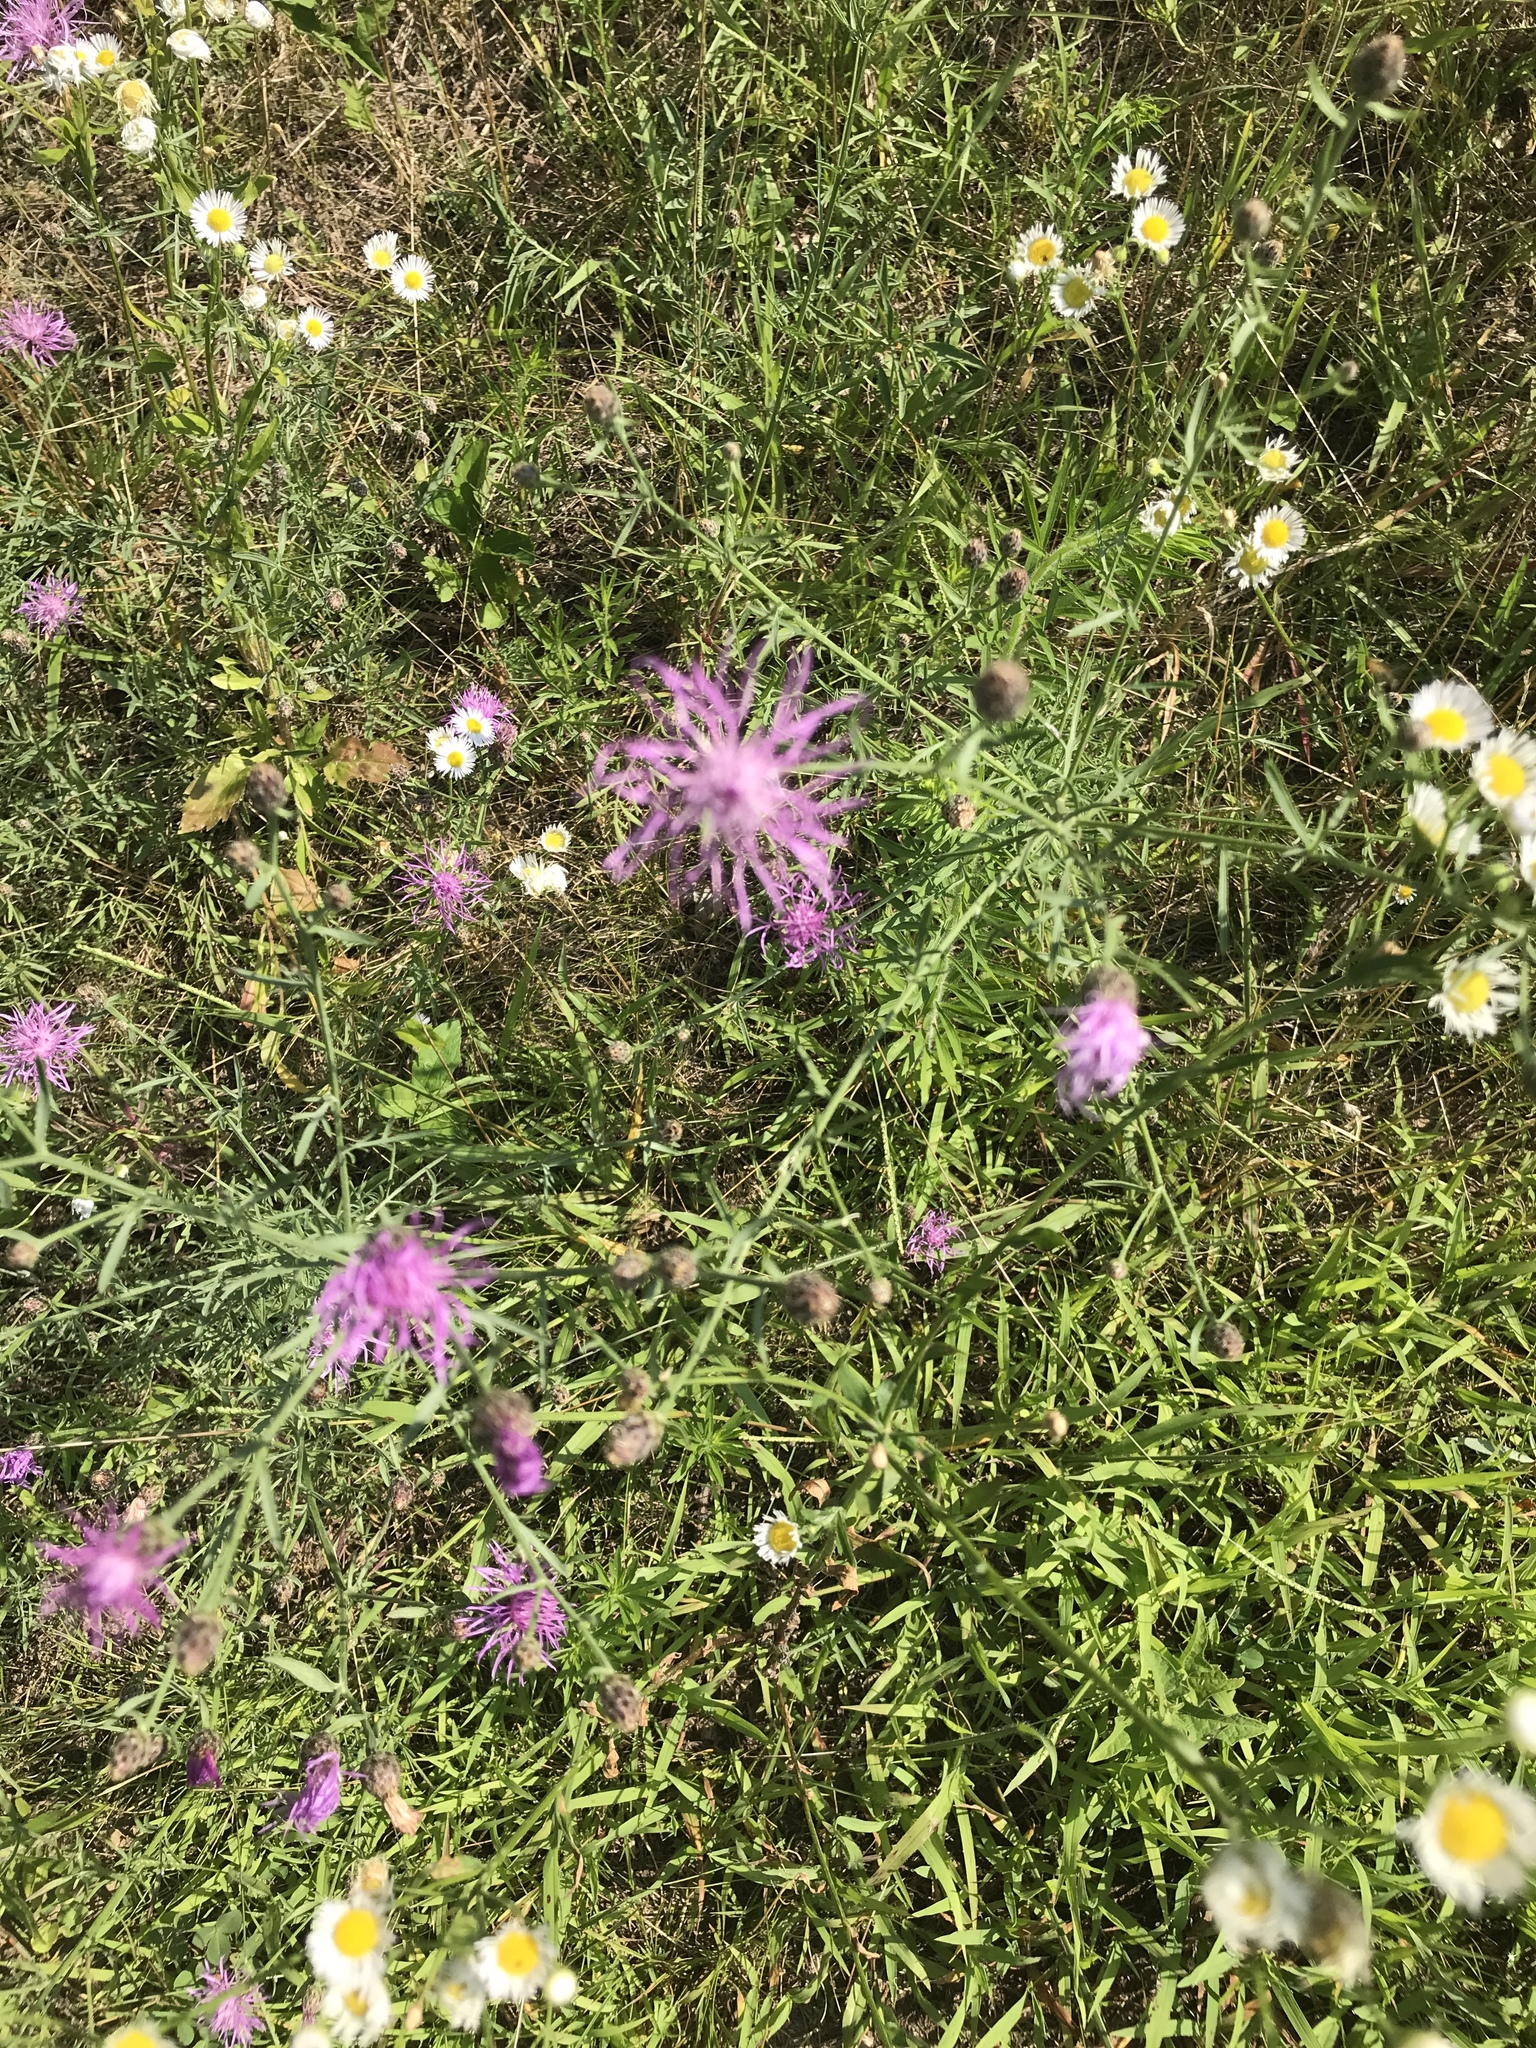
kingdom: Plantae
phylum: Tracheophyta
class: Magnoliopsida
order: Asterales
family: Asteraceae
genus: Centaurea
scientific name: Centaurea stoebe
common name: Spotted knapweed
